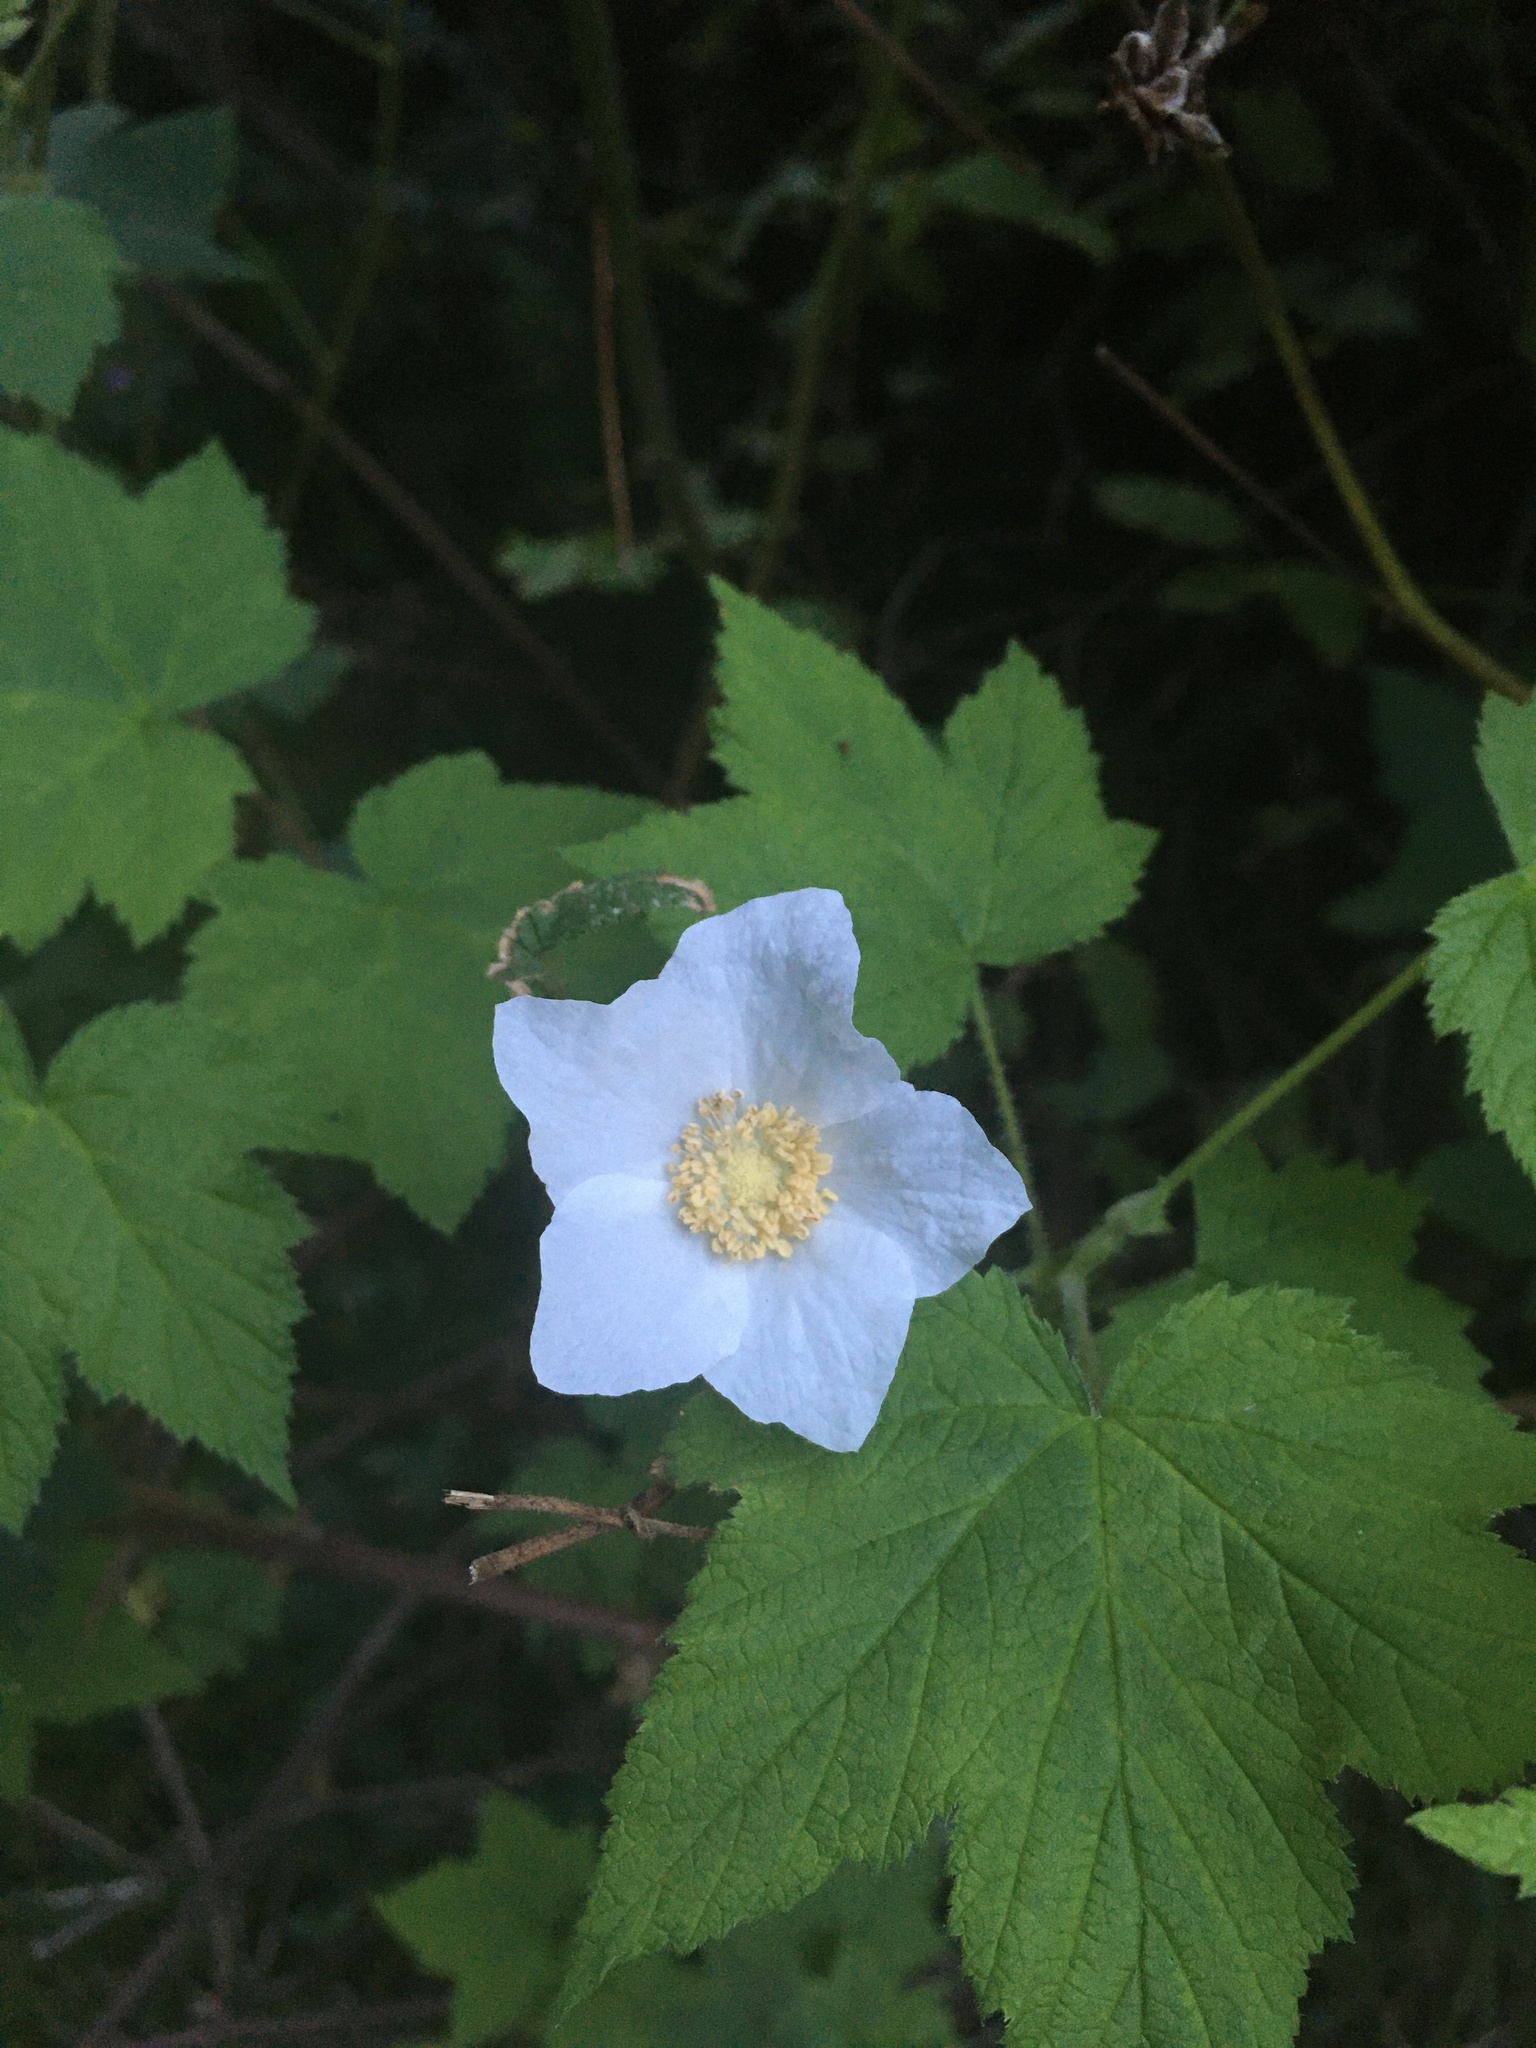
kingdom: Plantae
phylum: Tracheophyta
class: Magnoliopsida
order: Rosales
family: Rosaceae
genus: Rubus
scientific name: Rubus parviflorus
